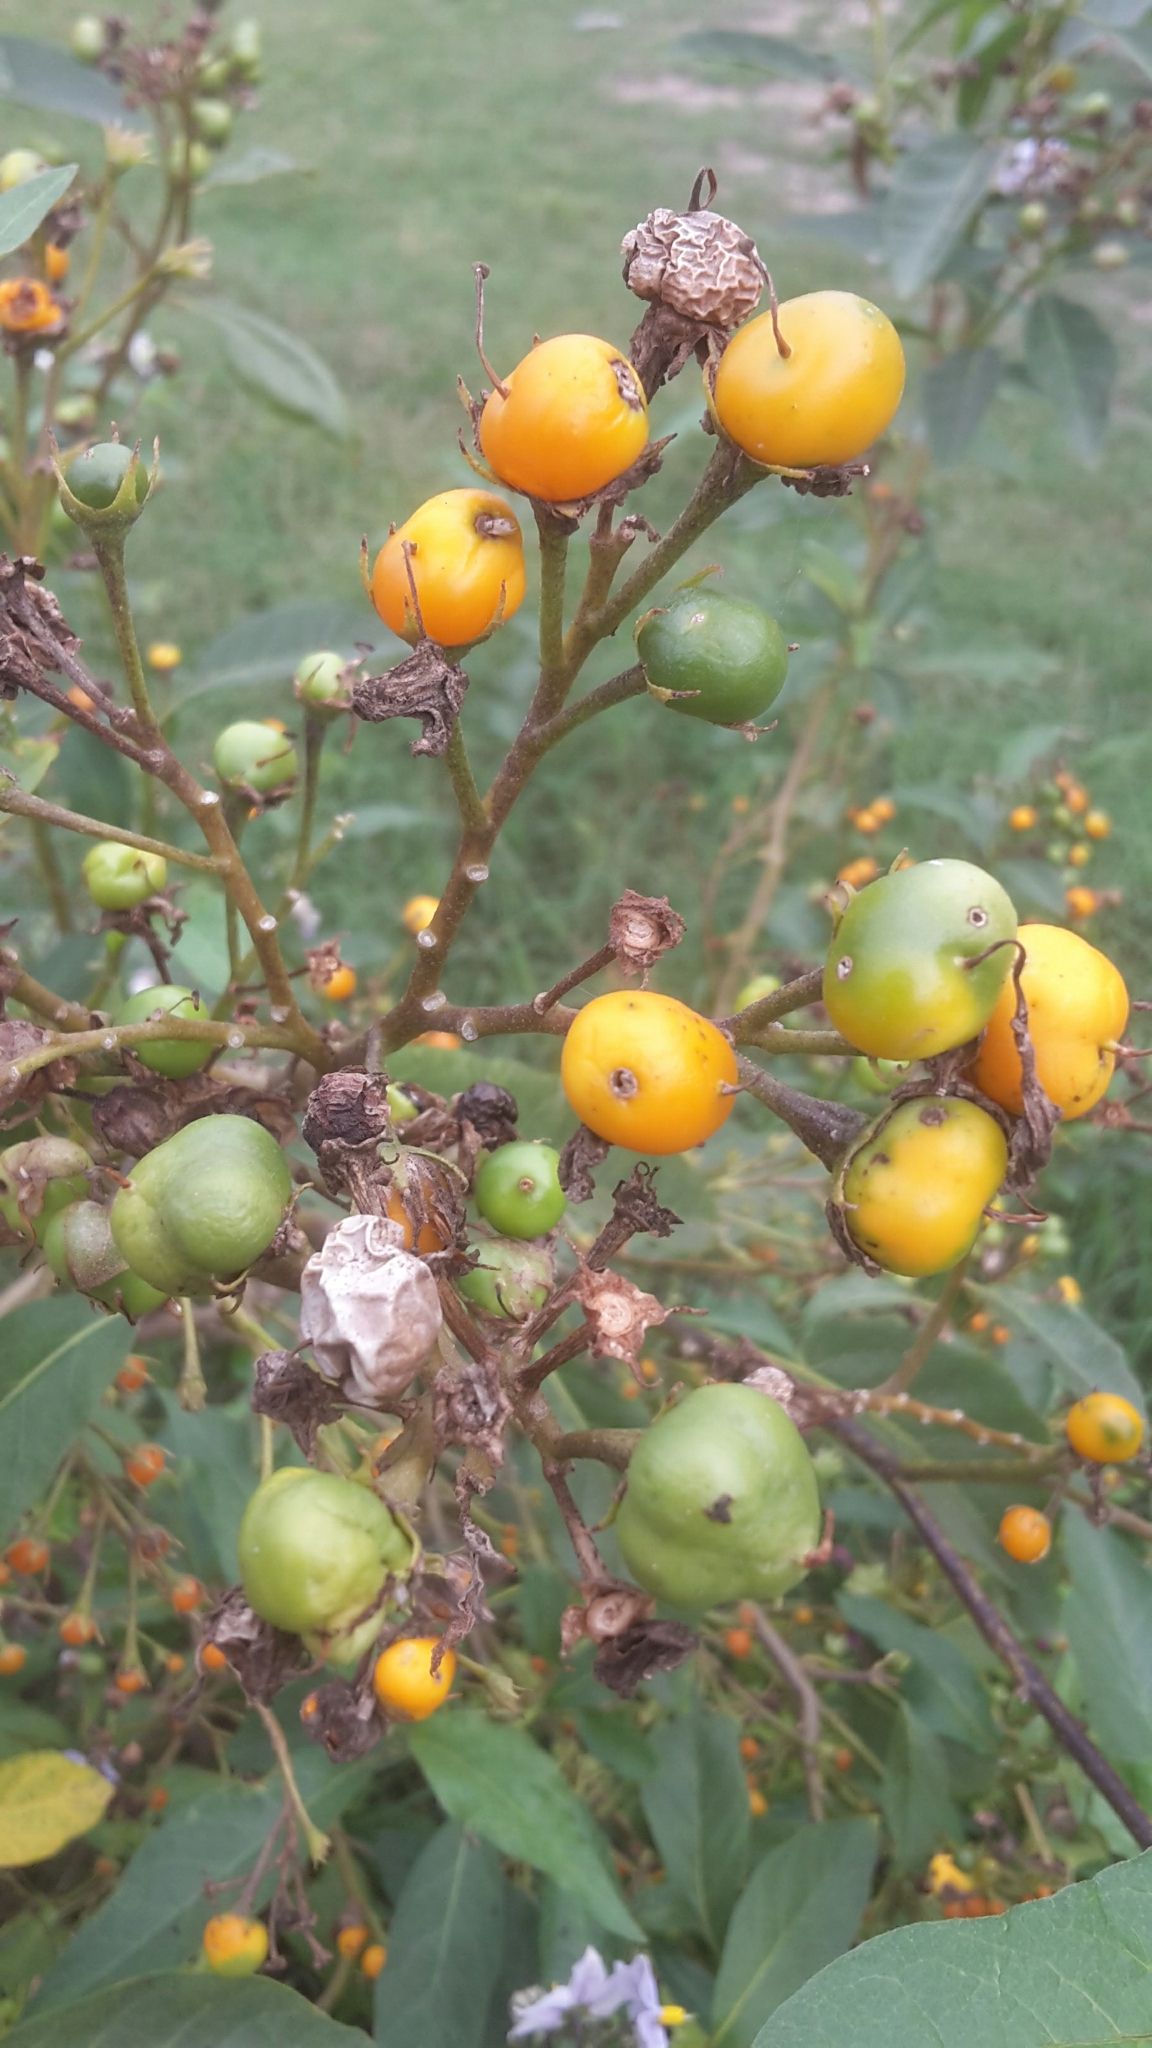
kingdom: Plantae
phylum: Tracheophyta
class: Magnoliopsida
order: Solanales
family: Solanaceae
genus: Solanum
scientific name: Solanum bonariense
